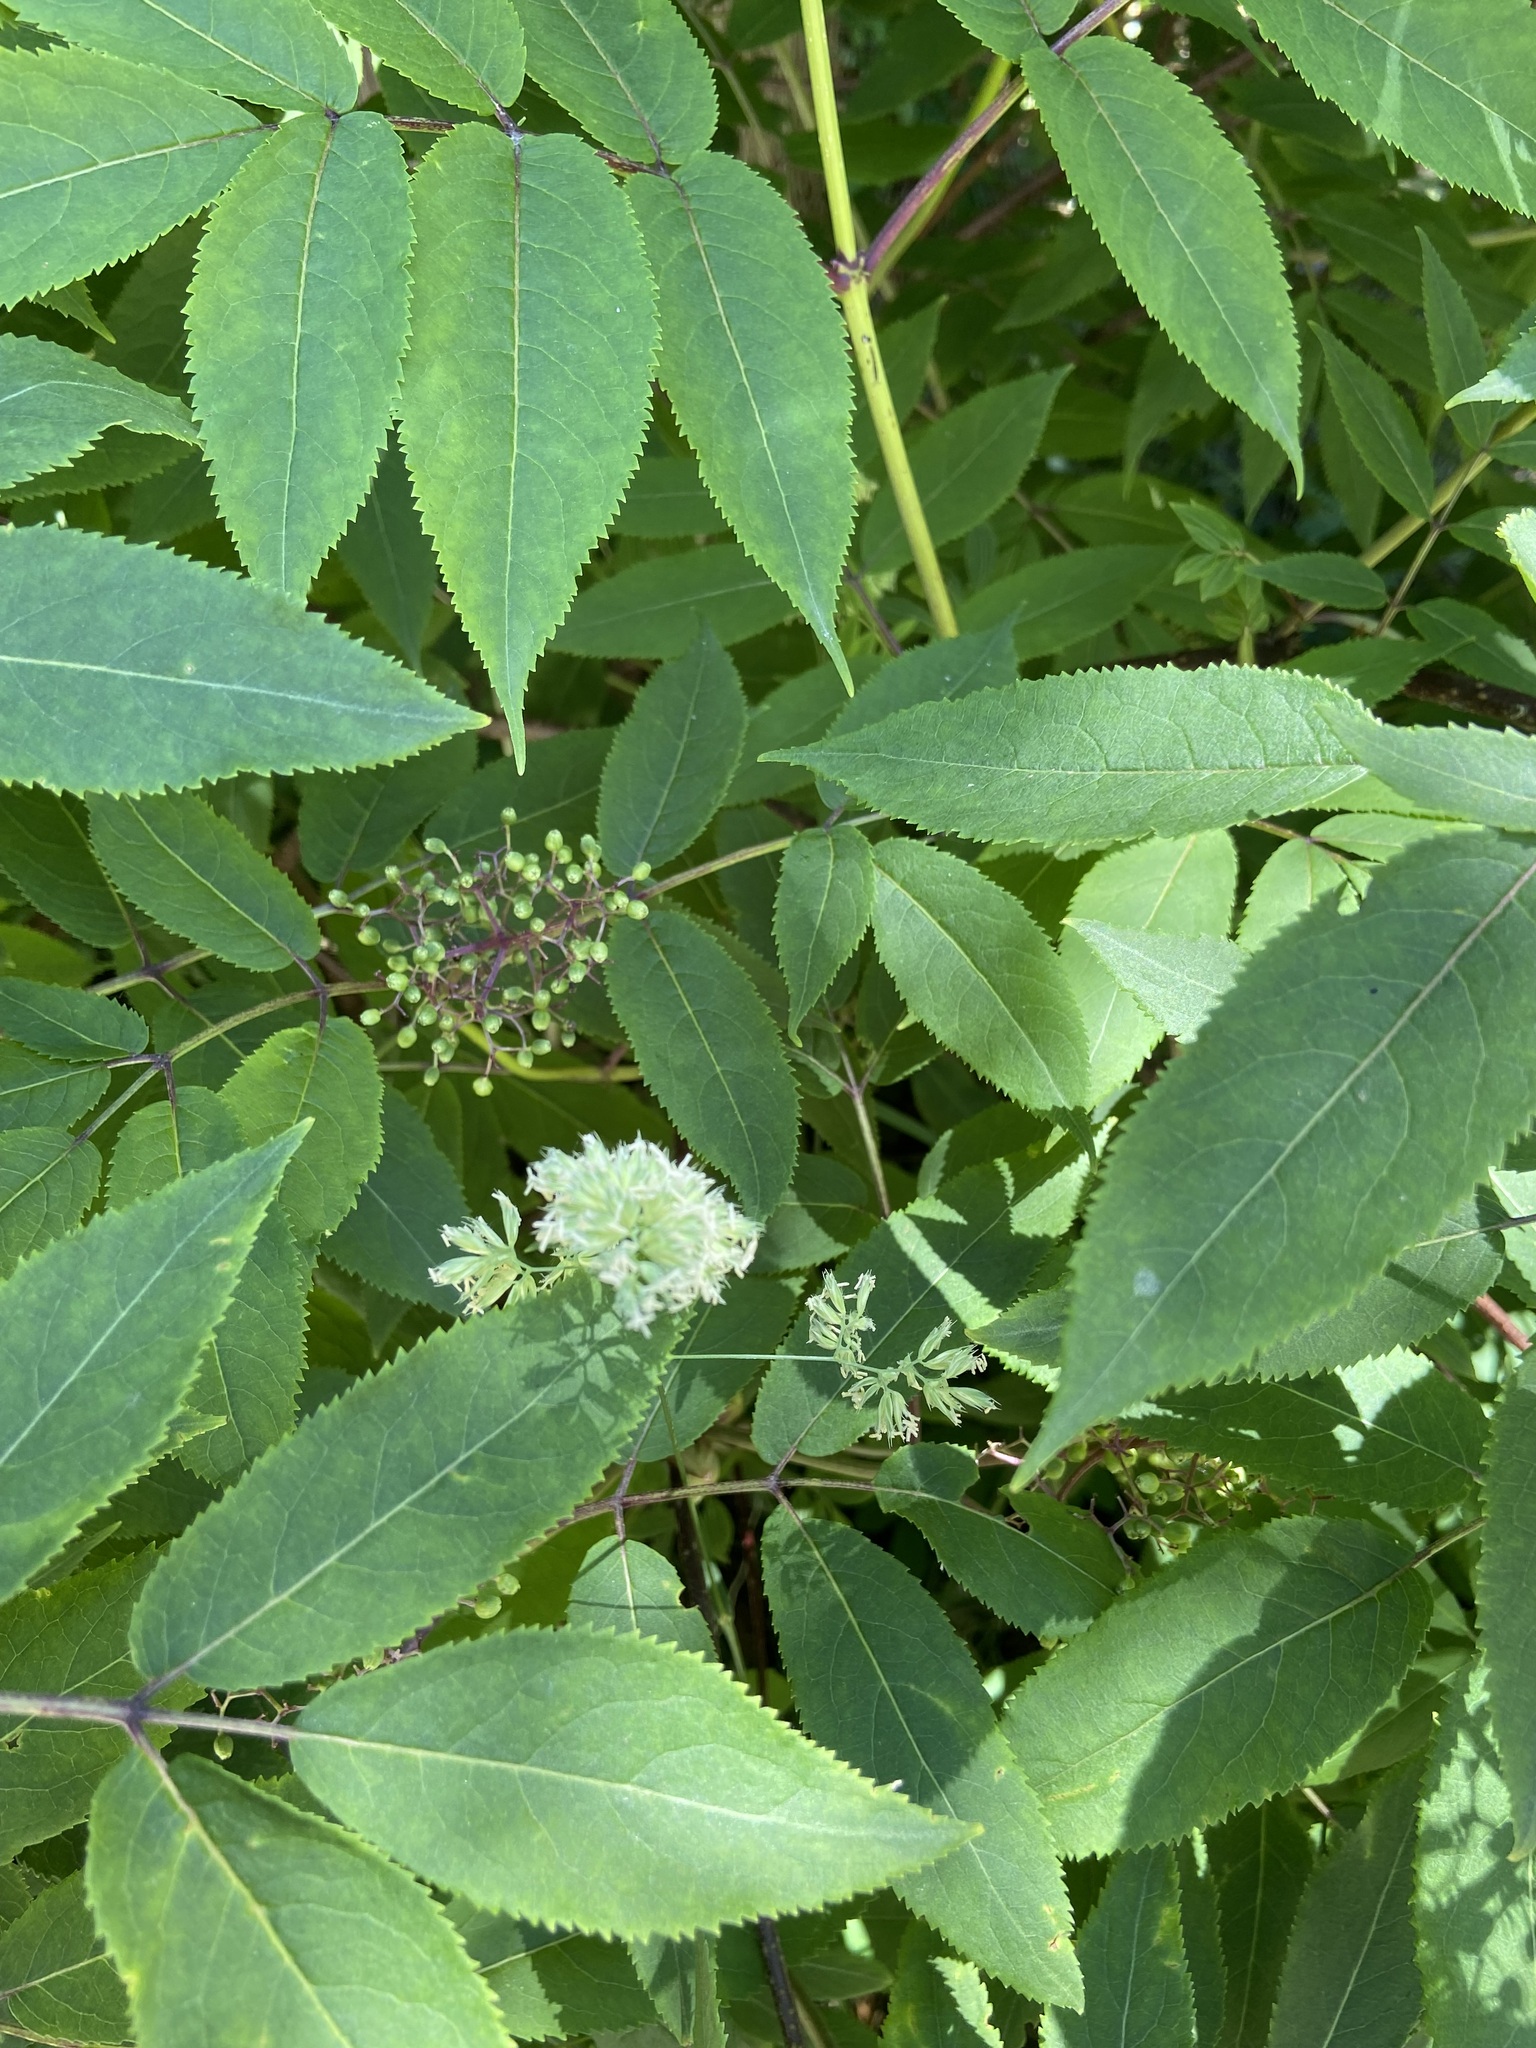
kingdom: Plantae
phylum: Tracheophyta
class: Magnoliopsida
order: Dipsacales
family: Viburnaceae
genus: Sambucus
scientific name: Sambucus racemosa
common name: Red-berried elder
